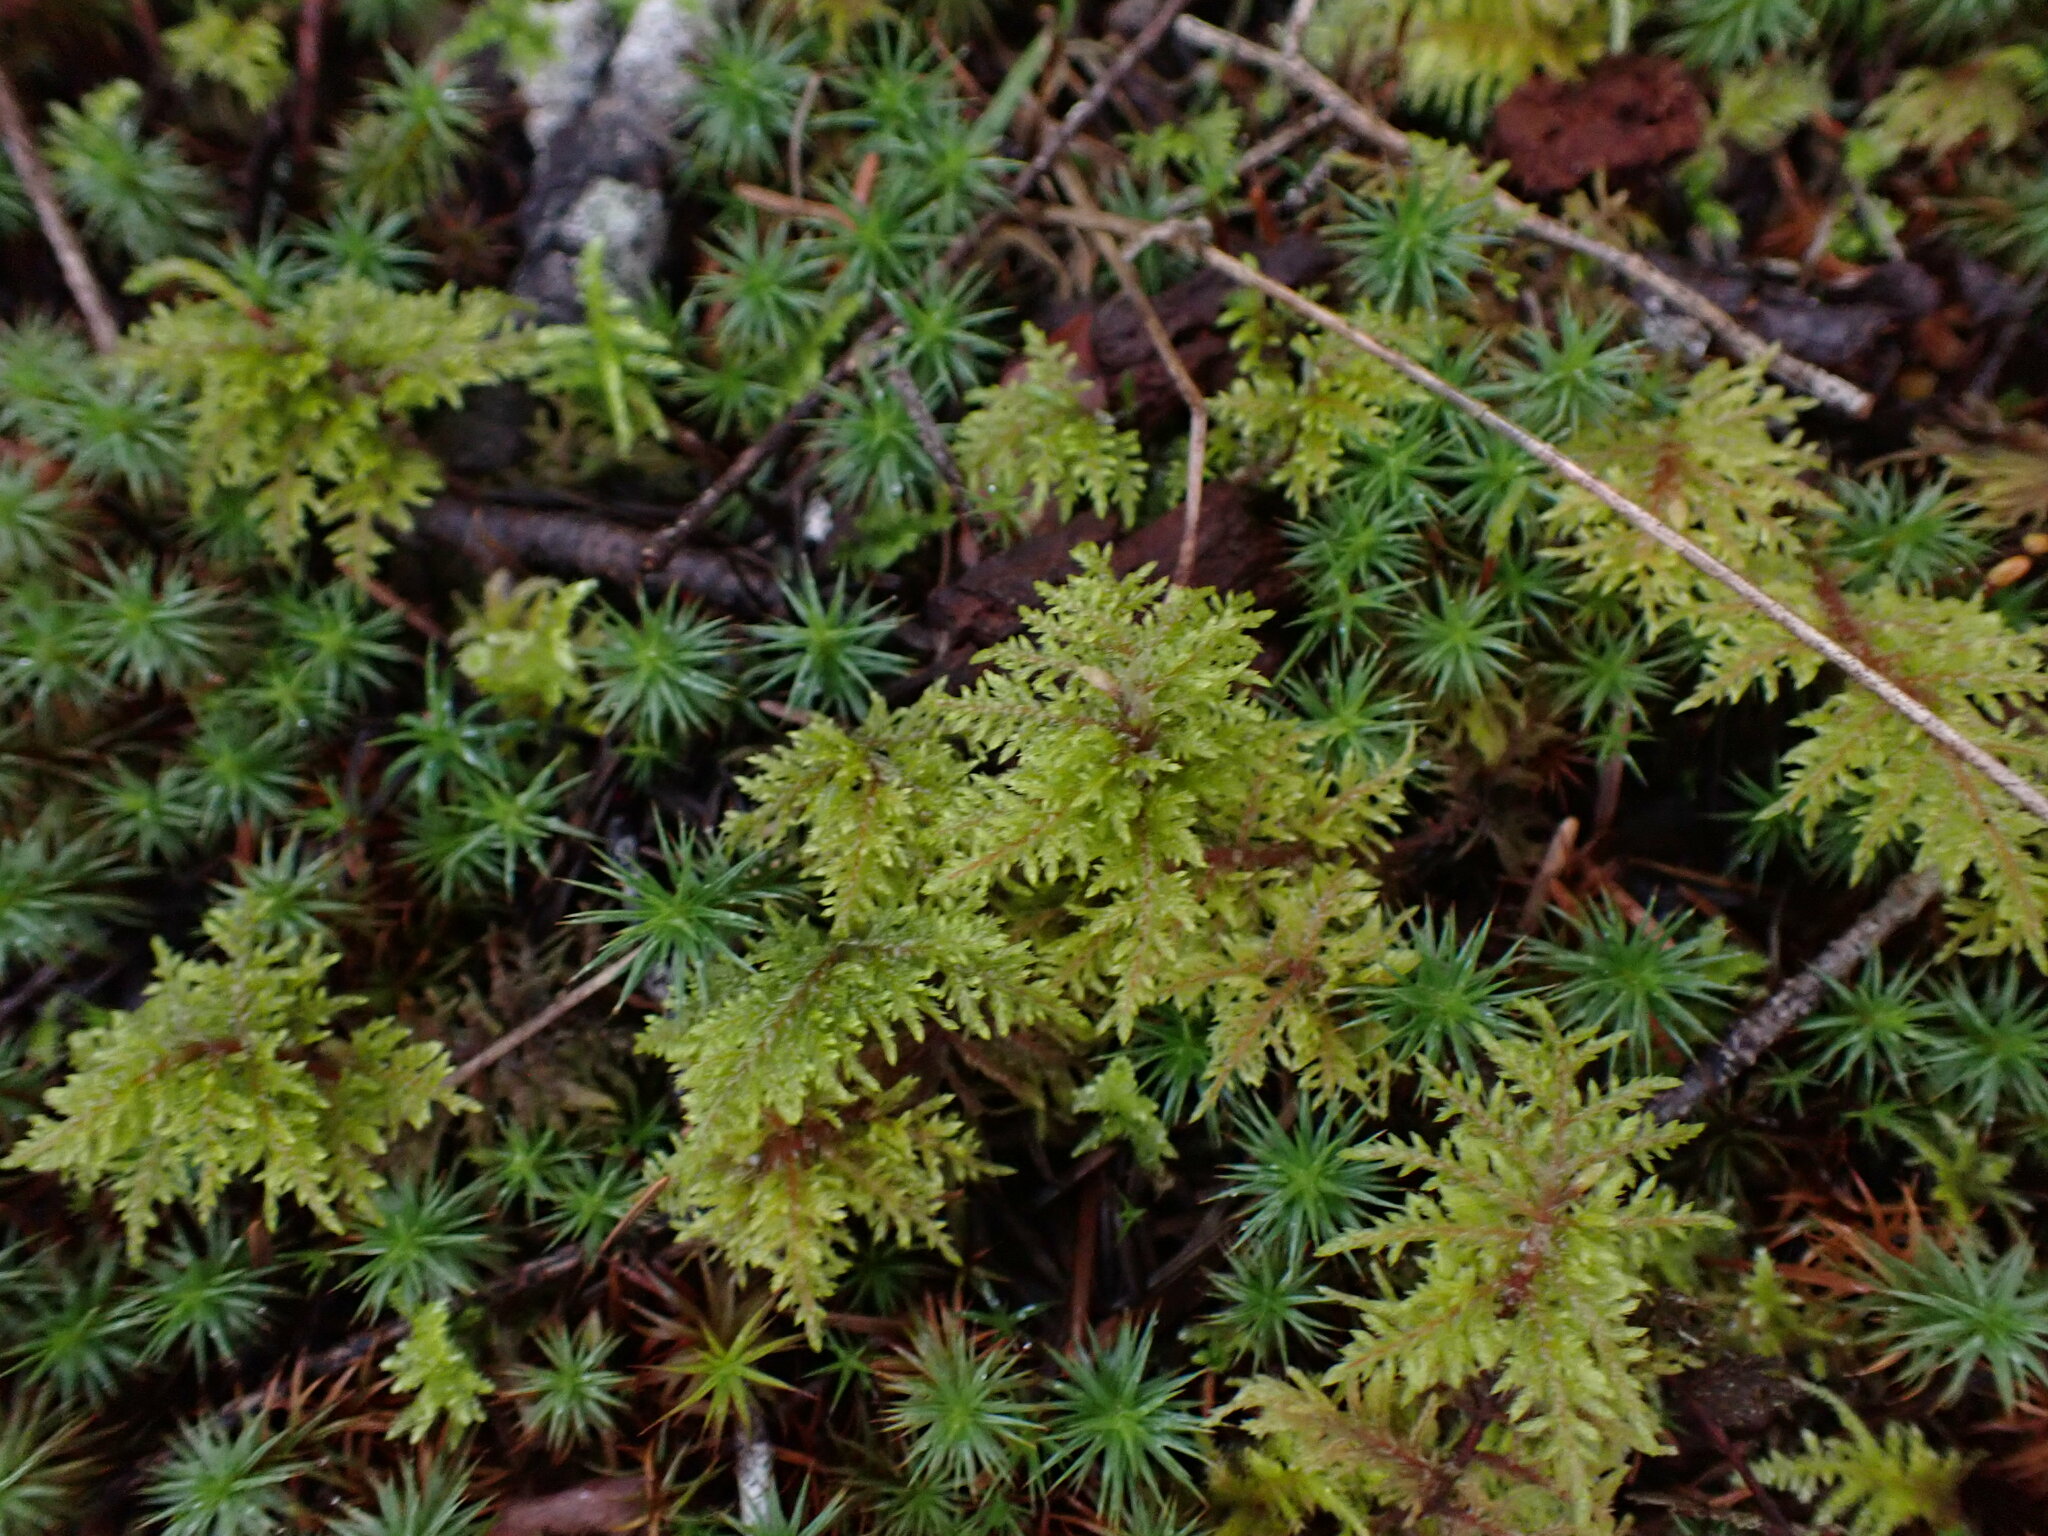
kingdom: Plantae
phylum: Bryophyta
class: Bryopsida
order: Hypnales
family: Hylocomiaceae
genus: Hylocomium
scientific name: Hylocomium splendens
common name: Stairstep moss
